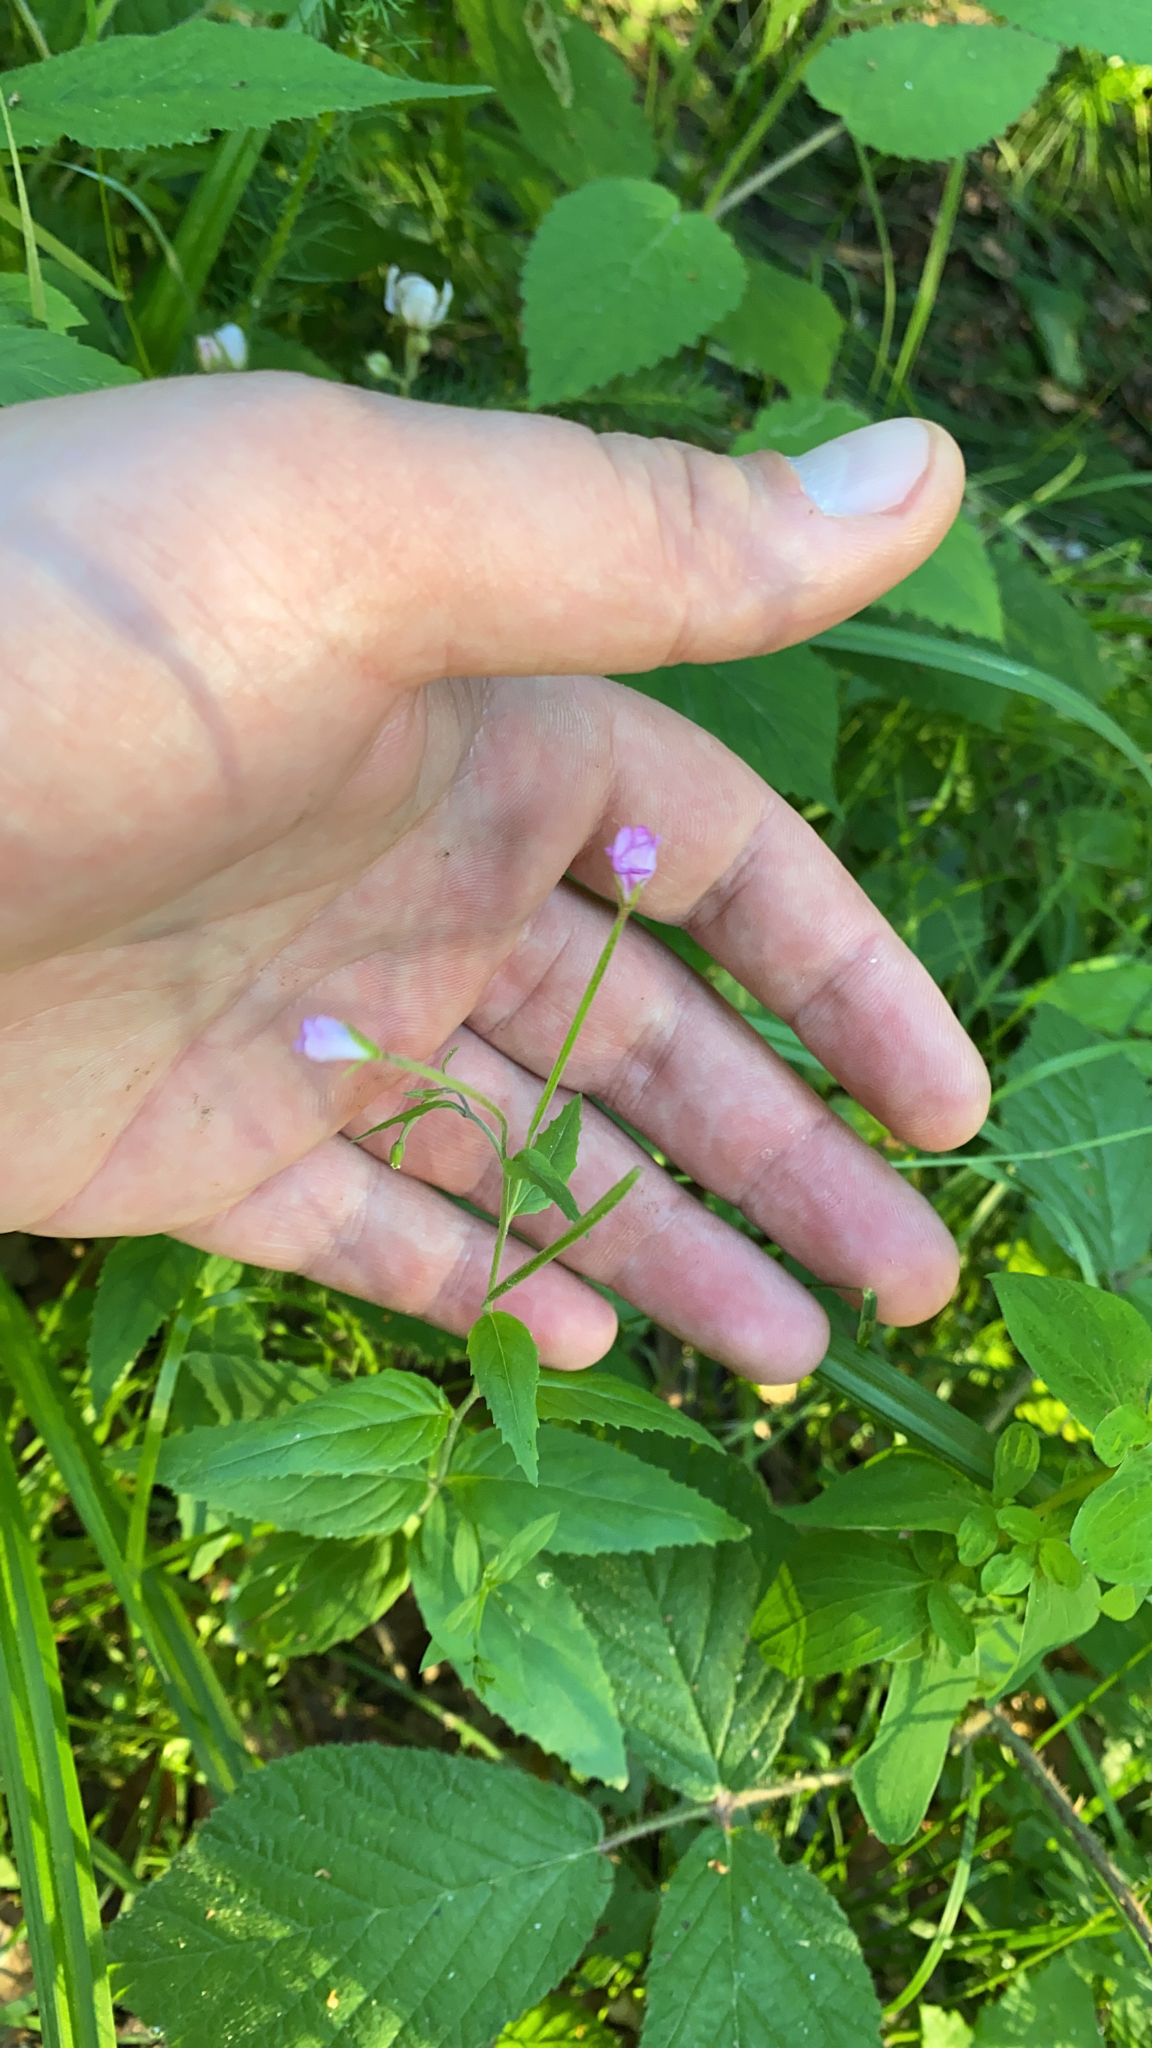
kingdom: Plantae
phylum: Tracheophyta
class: Magnoliopsida
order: Myrtales
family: Onagraceae
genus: Epilobium
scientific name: Epilobium montanum
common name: Broad-leaved willowherb
